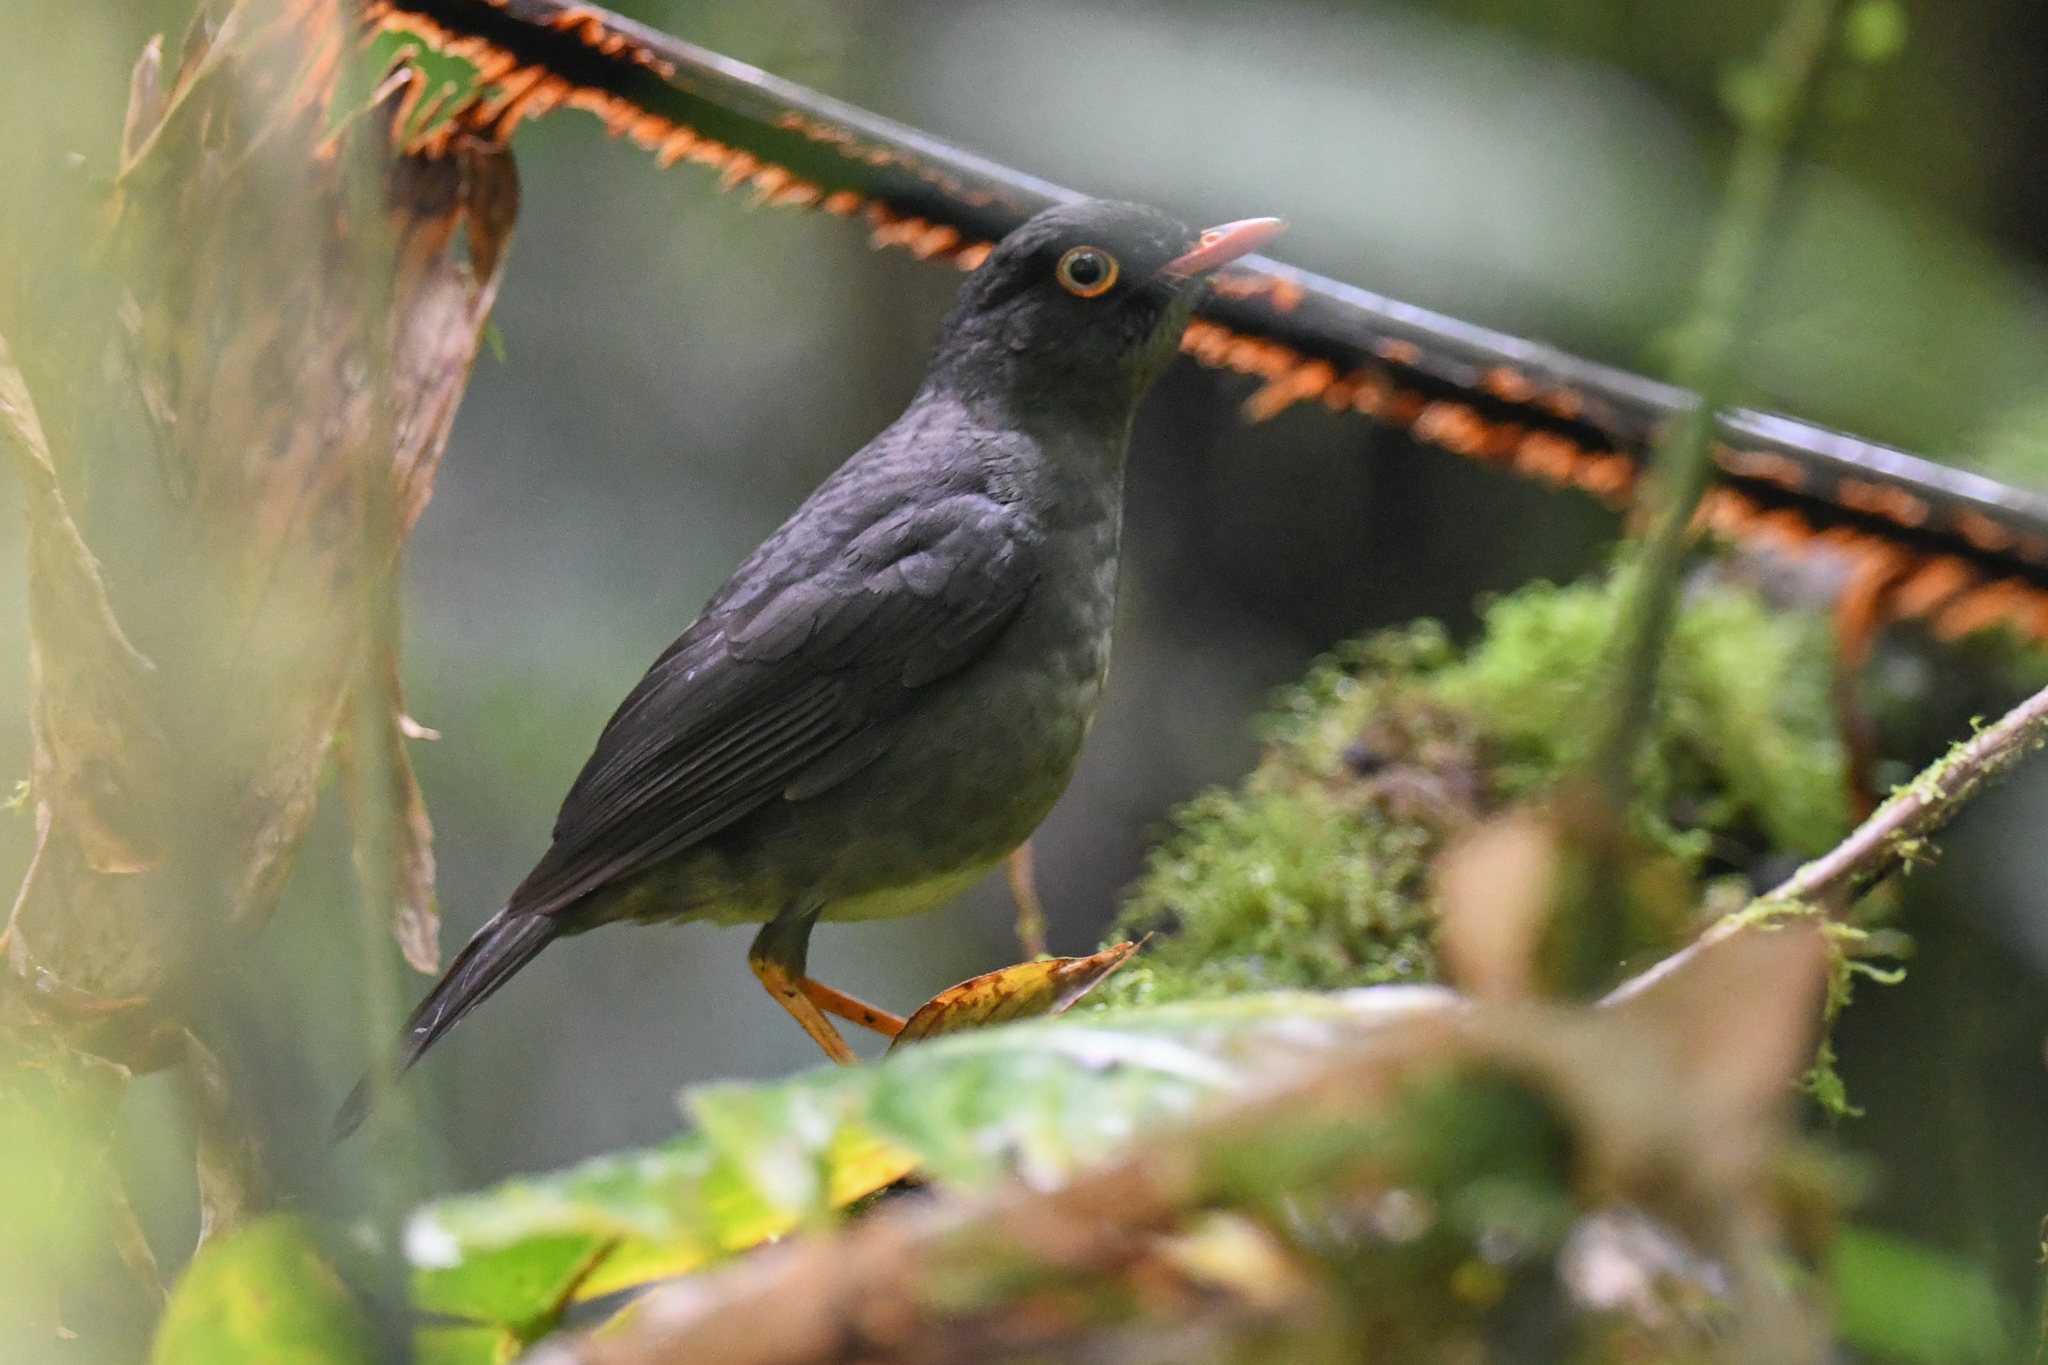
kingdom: Animalia
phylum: Chordata
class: Aves
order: Passeriformes
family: Turdidae
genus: Catharus
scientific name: Catharus fuscater
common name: Slaty-backed nightingale-thrush
